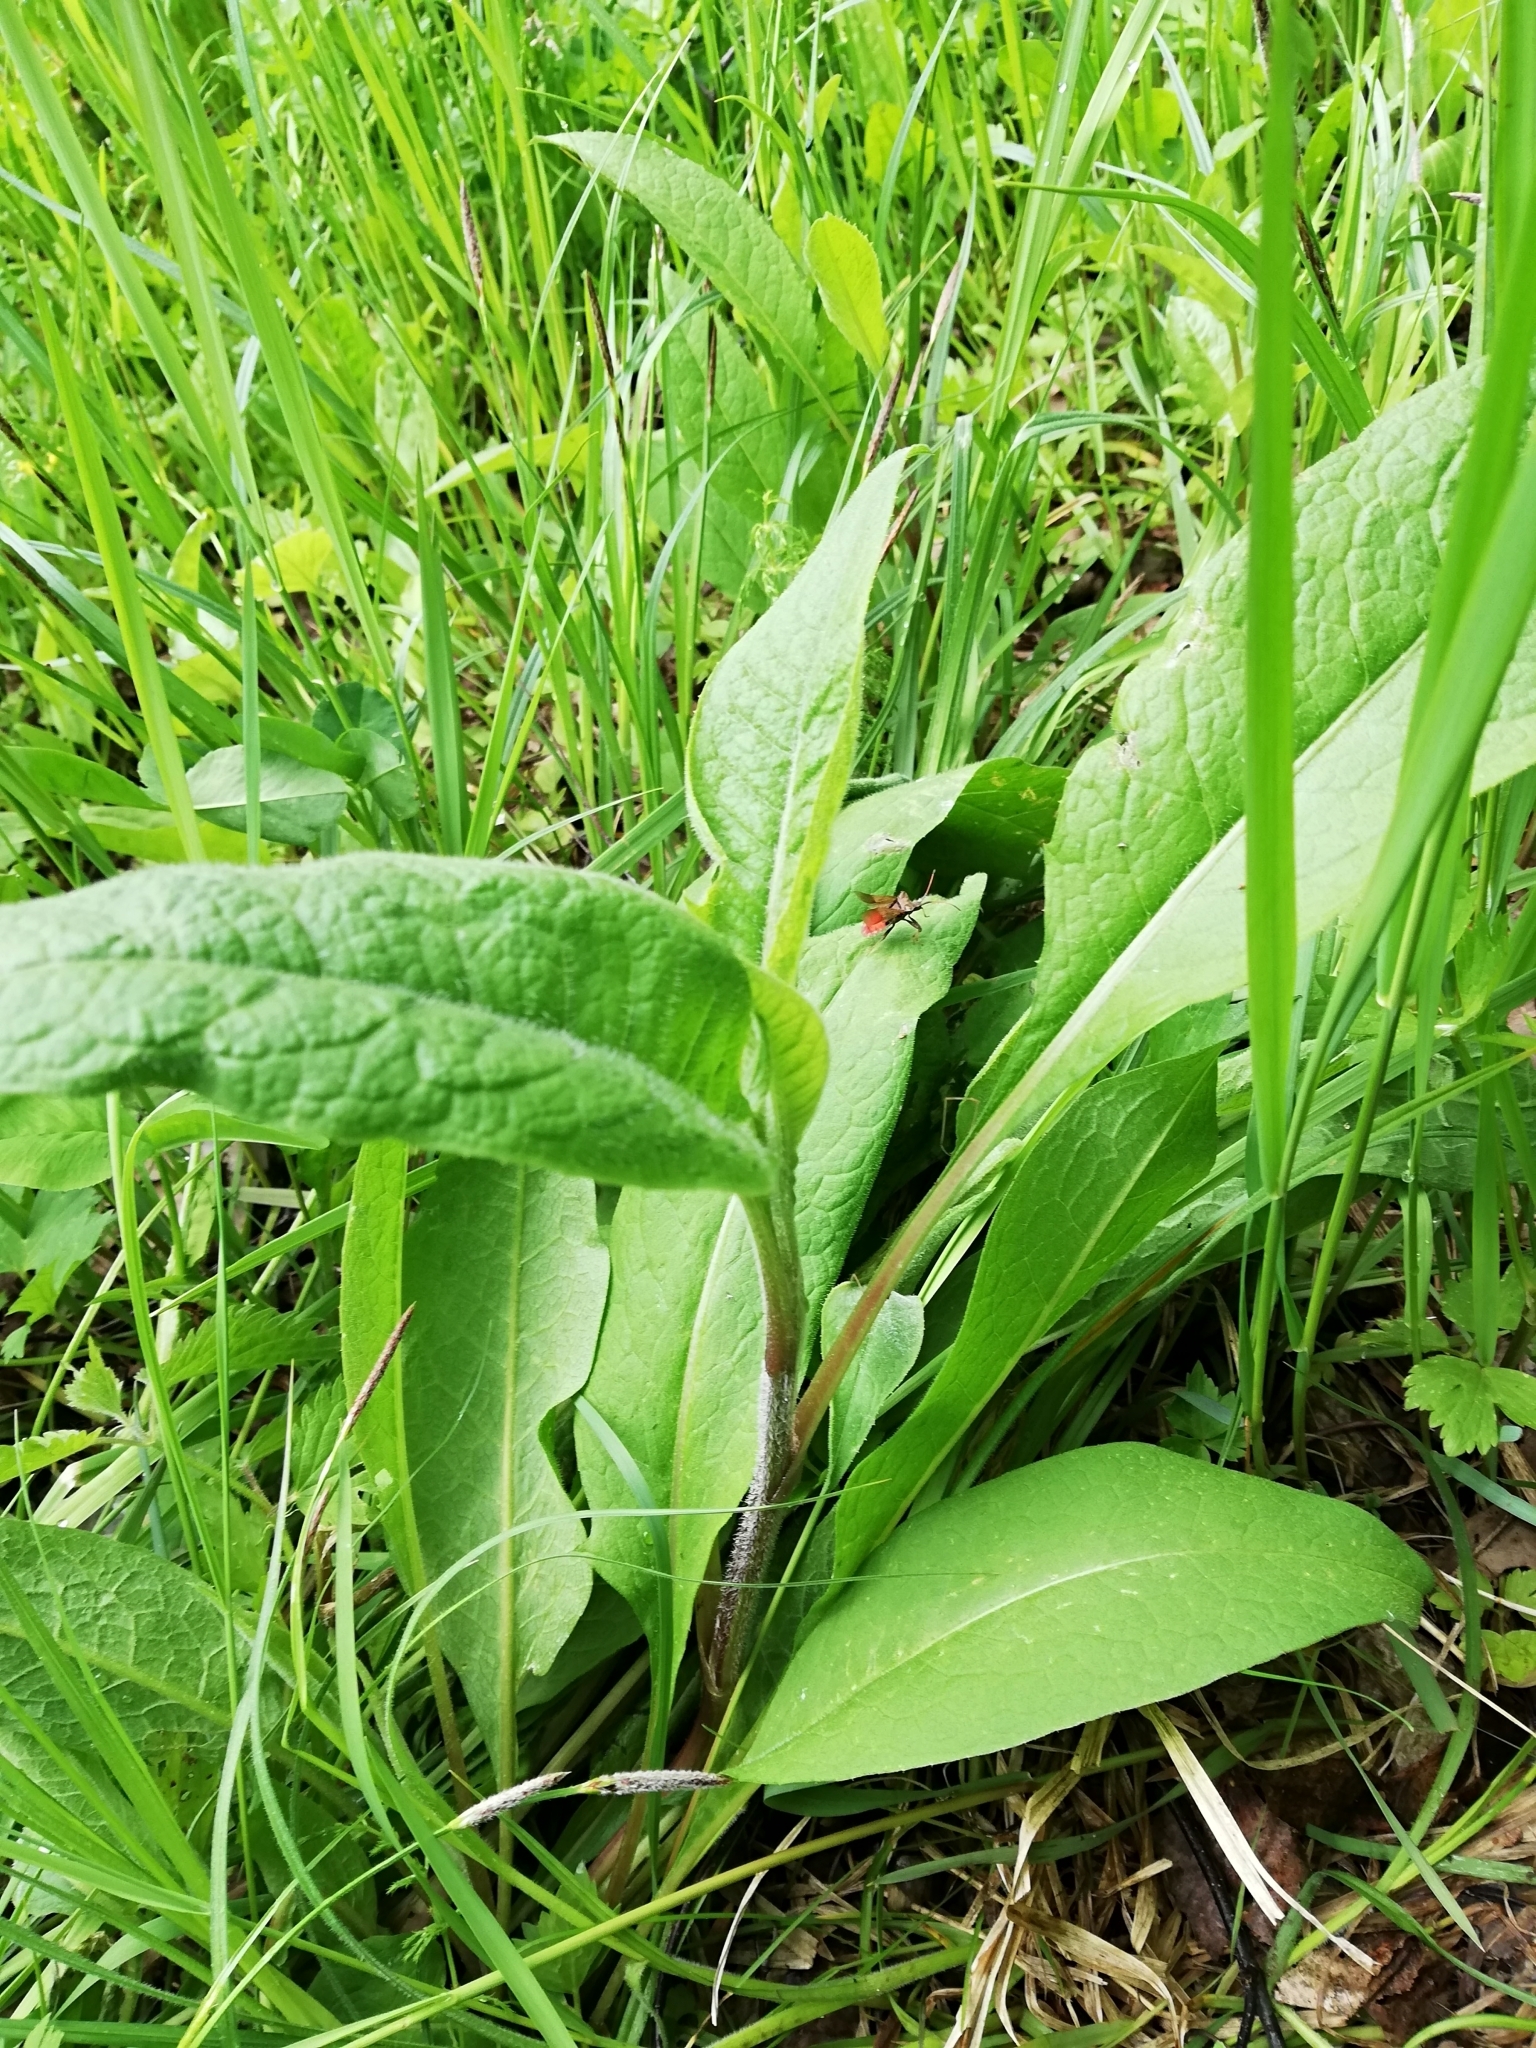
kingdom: Plantae
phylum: Tracheophyta
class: Magnoliopsida
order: Asterales
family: Asteraceae
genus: Centaurea
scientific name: Centaurea phrygia
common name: Wig knapweed
